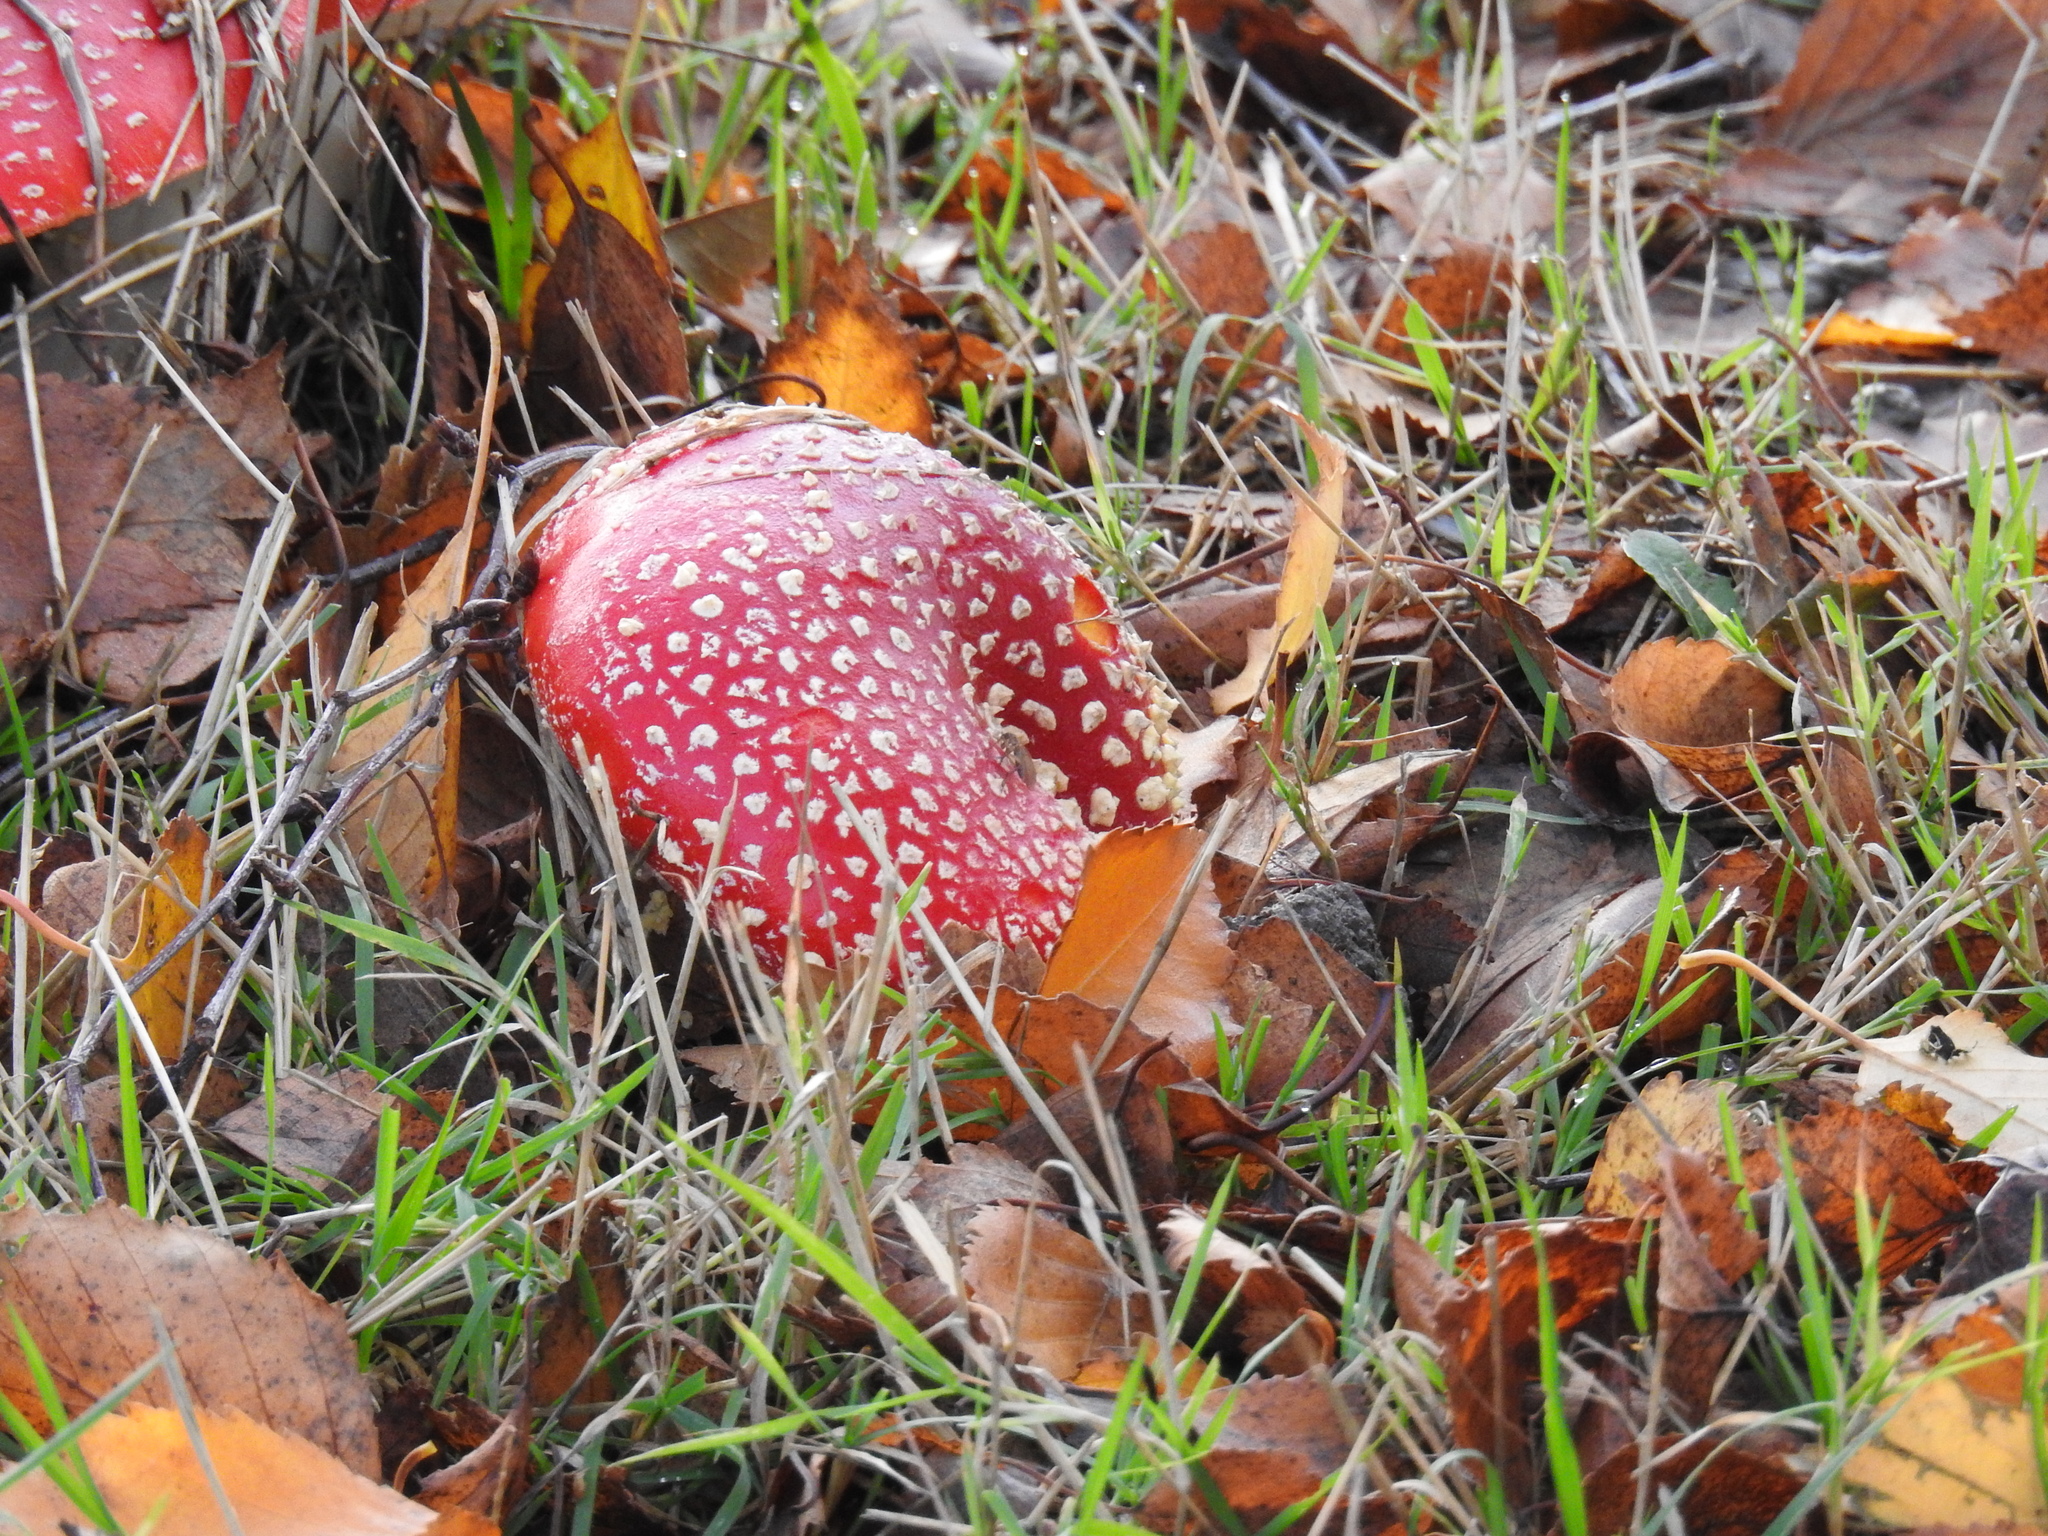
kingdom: Fungi
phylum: Basidiomycota
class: Agaricomycetes
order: Agaricales
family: Amanitaceae
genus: Amanita
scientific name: Amanita muscaria
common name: Fly agaric
